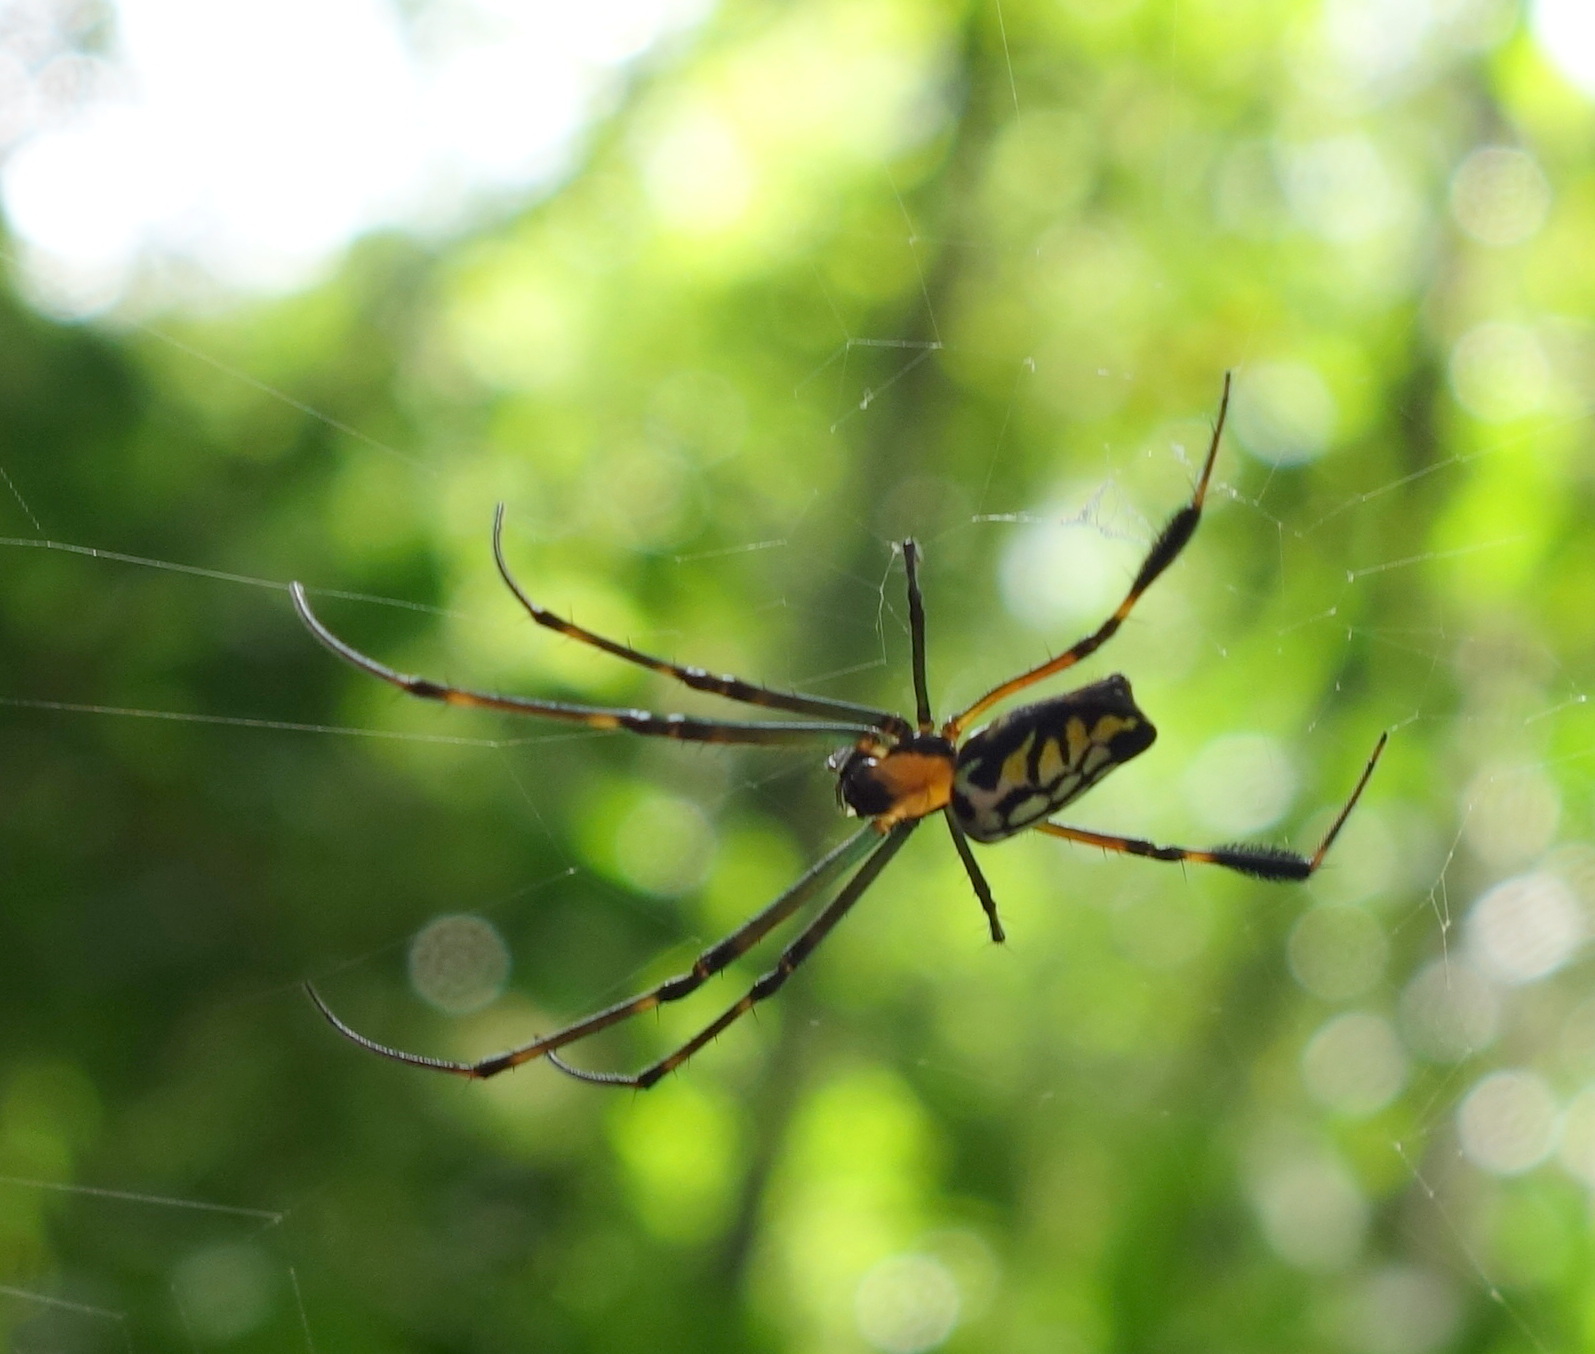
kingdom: Animalia
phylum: Arthropoda
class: Arachnida
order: Araneae
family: Tetragnathidae
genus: Leucauge
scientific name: Leucauge tessellata
